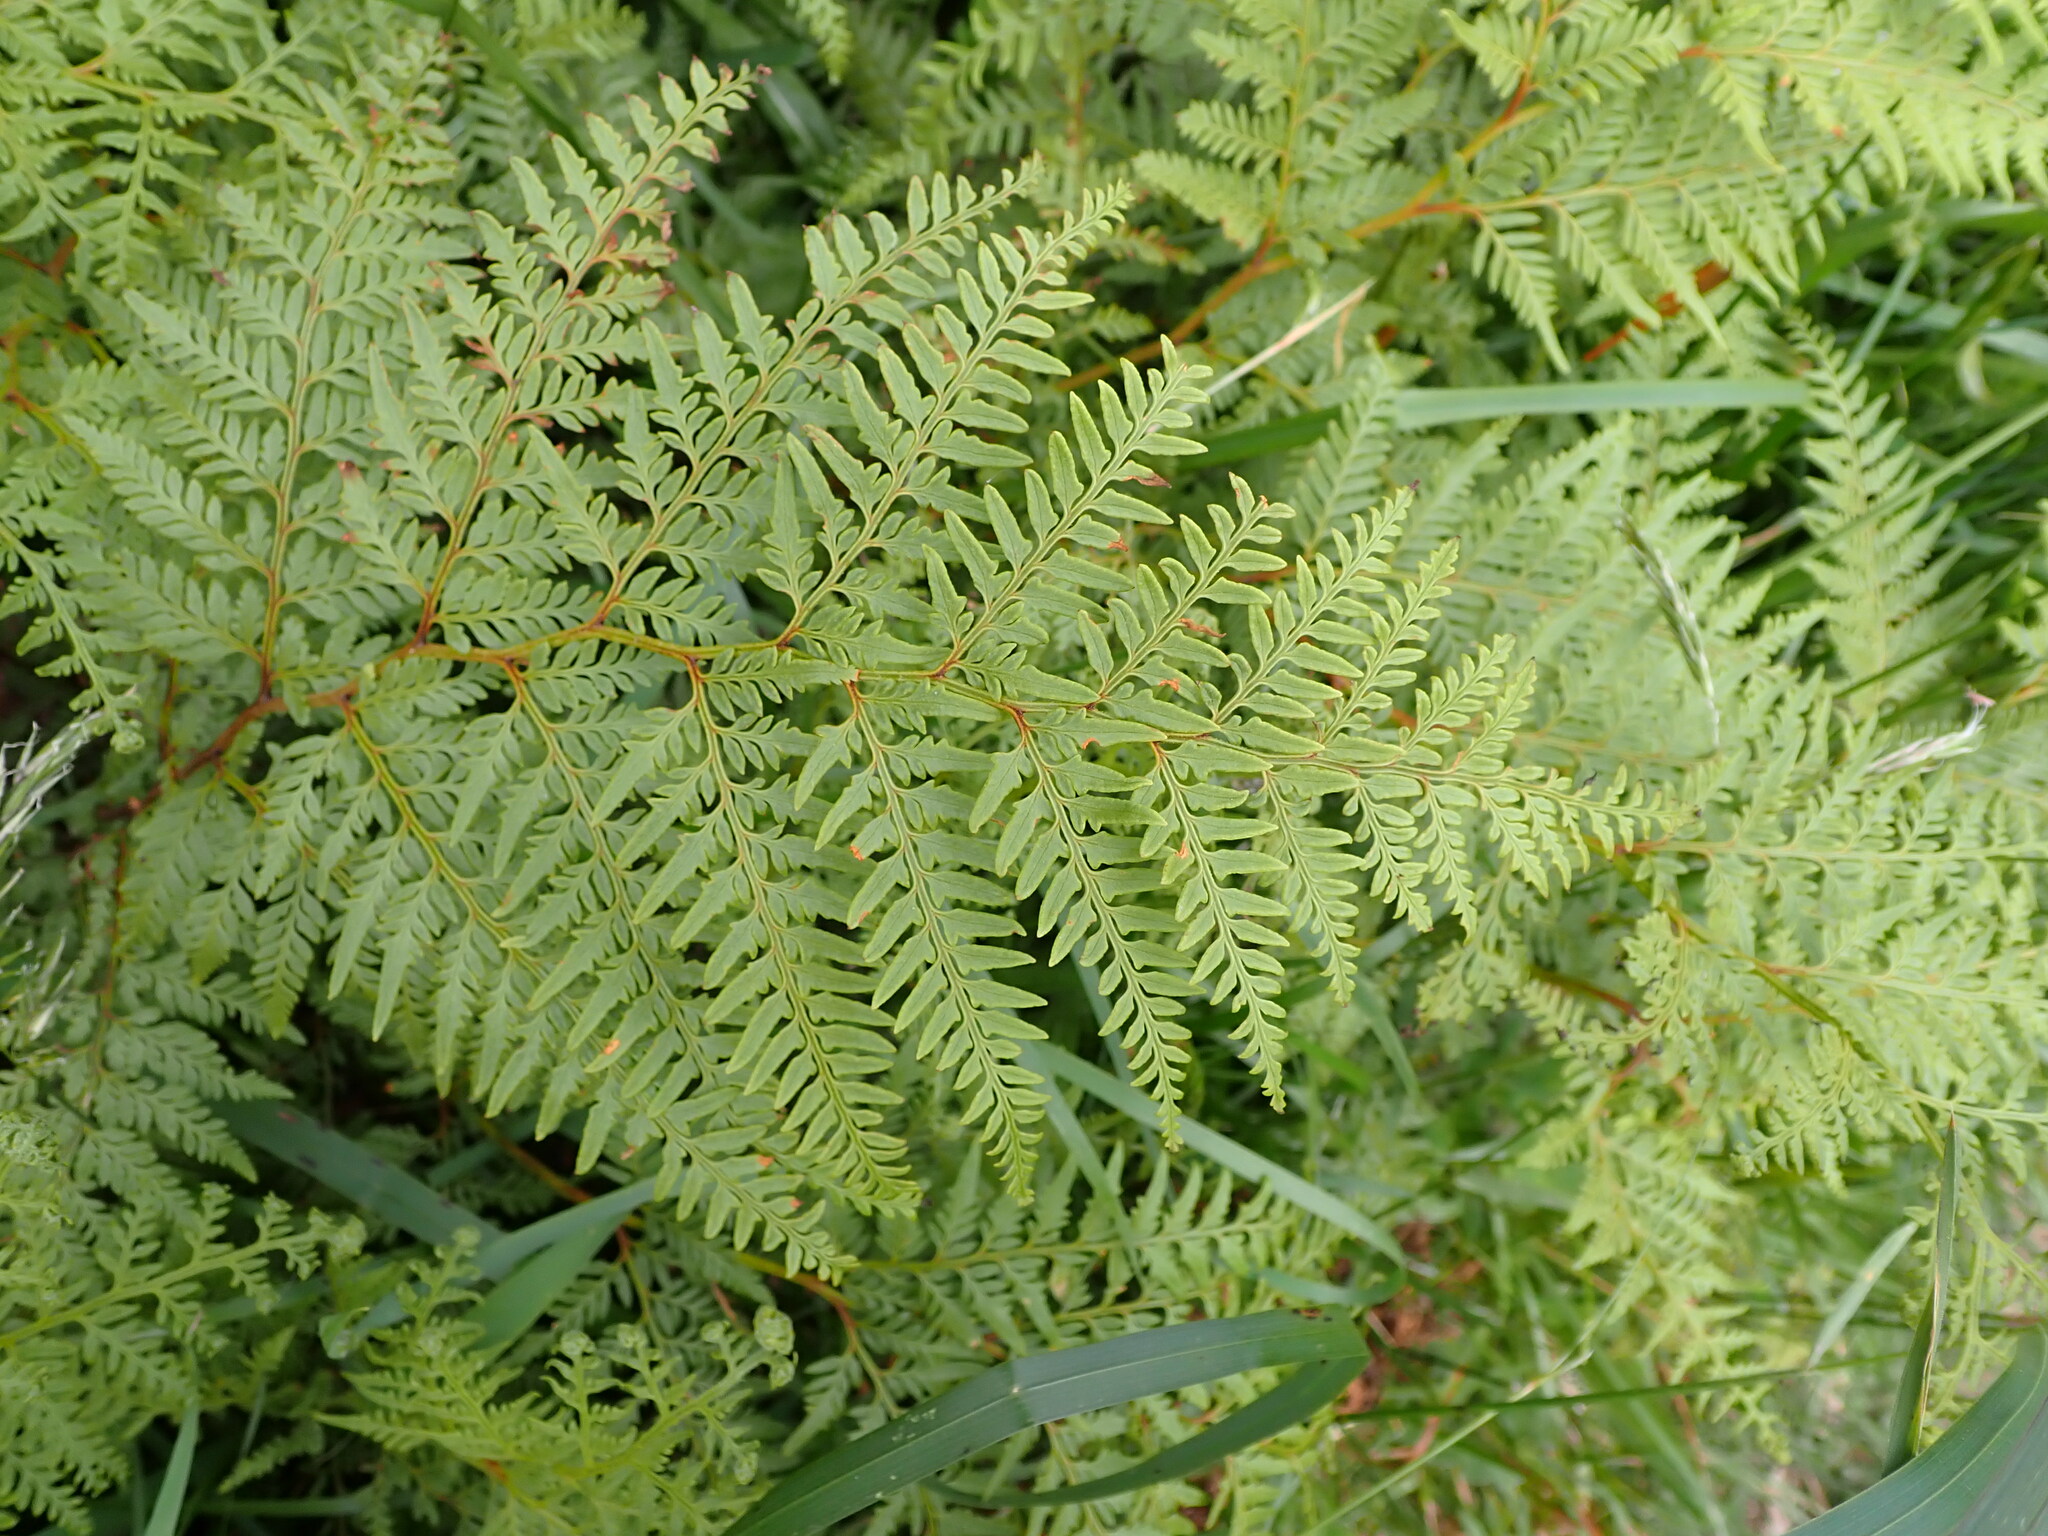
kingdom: Plantae
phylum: Tracheophyta
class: Polypodiopsida
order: Polypodiales
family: Dennstaedtiaceae
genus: Paesia
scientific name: Paesia scaberula
